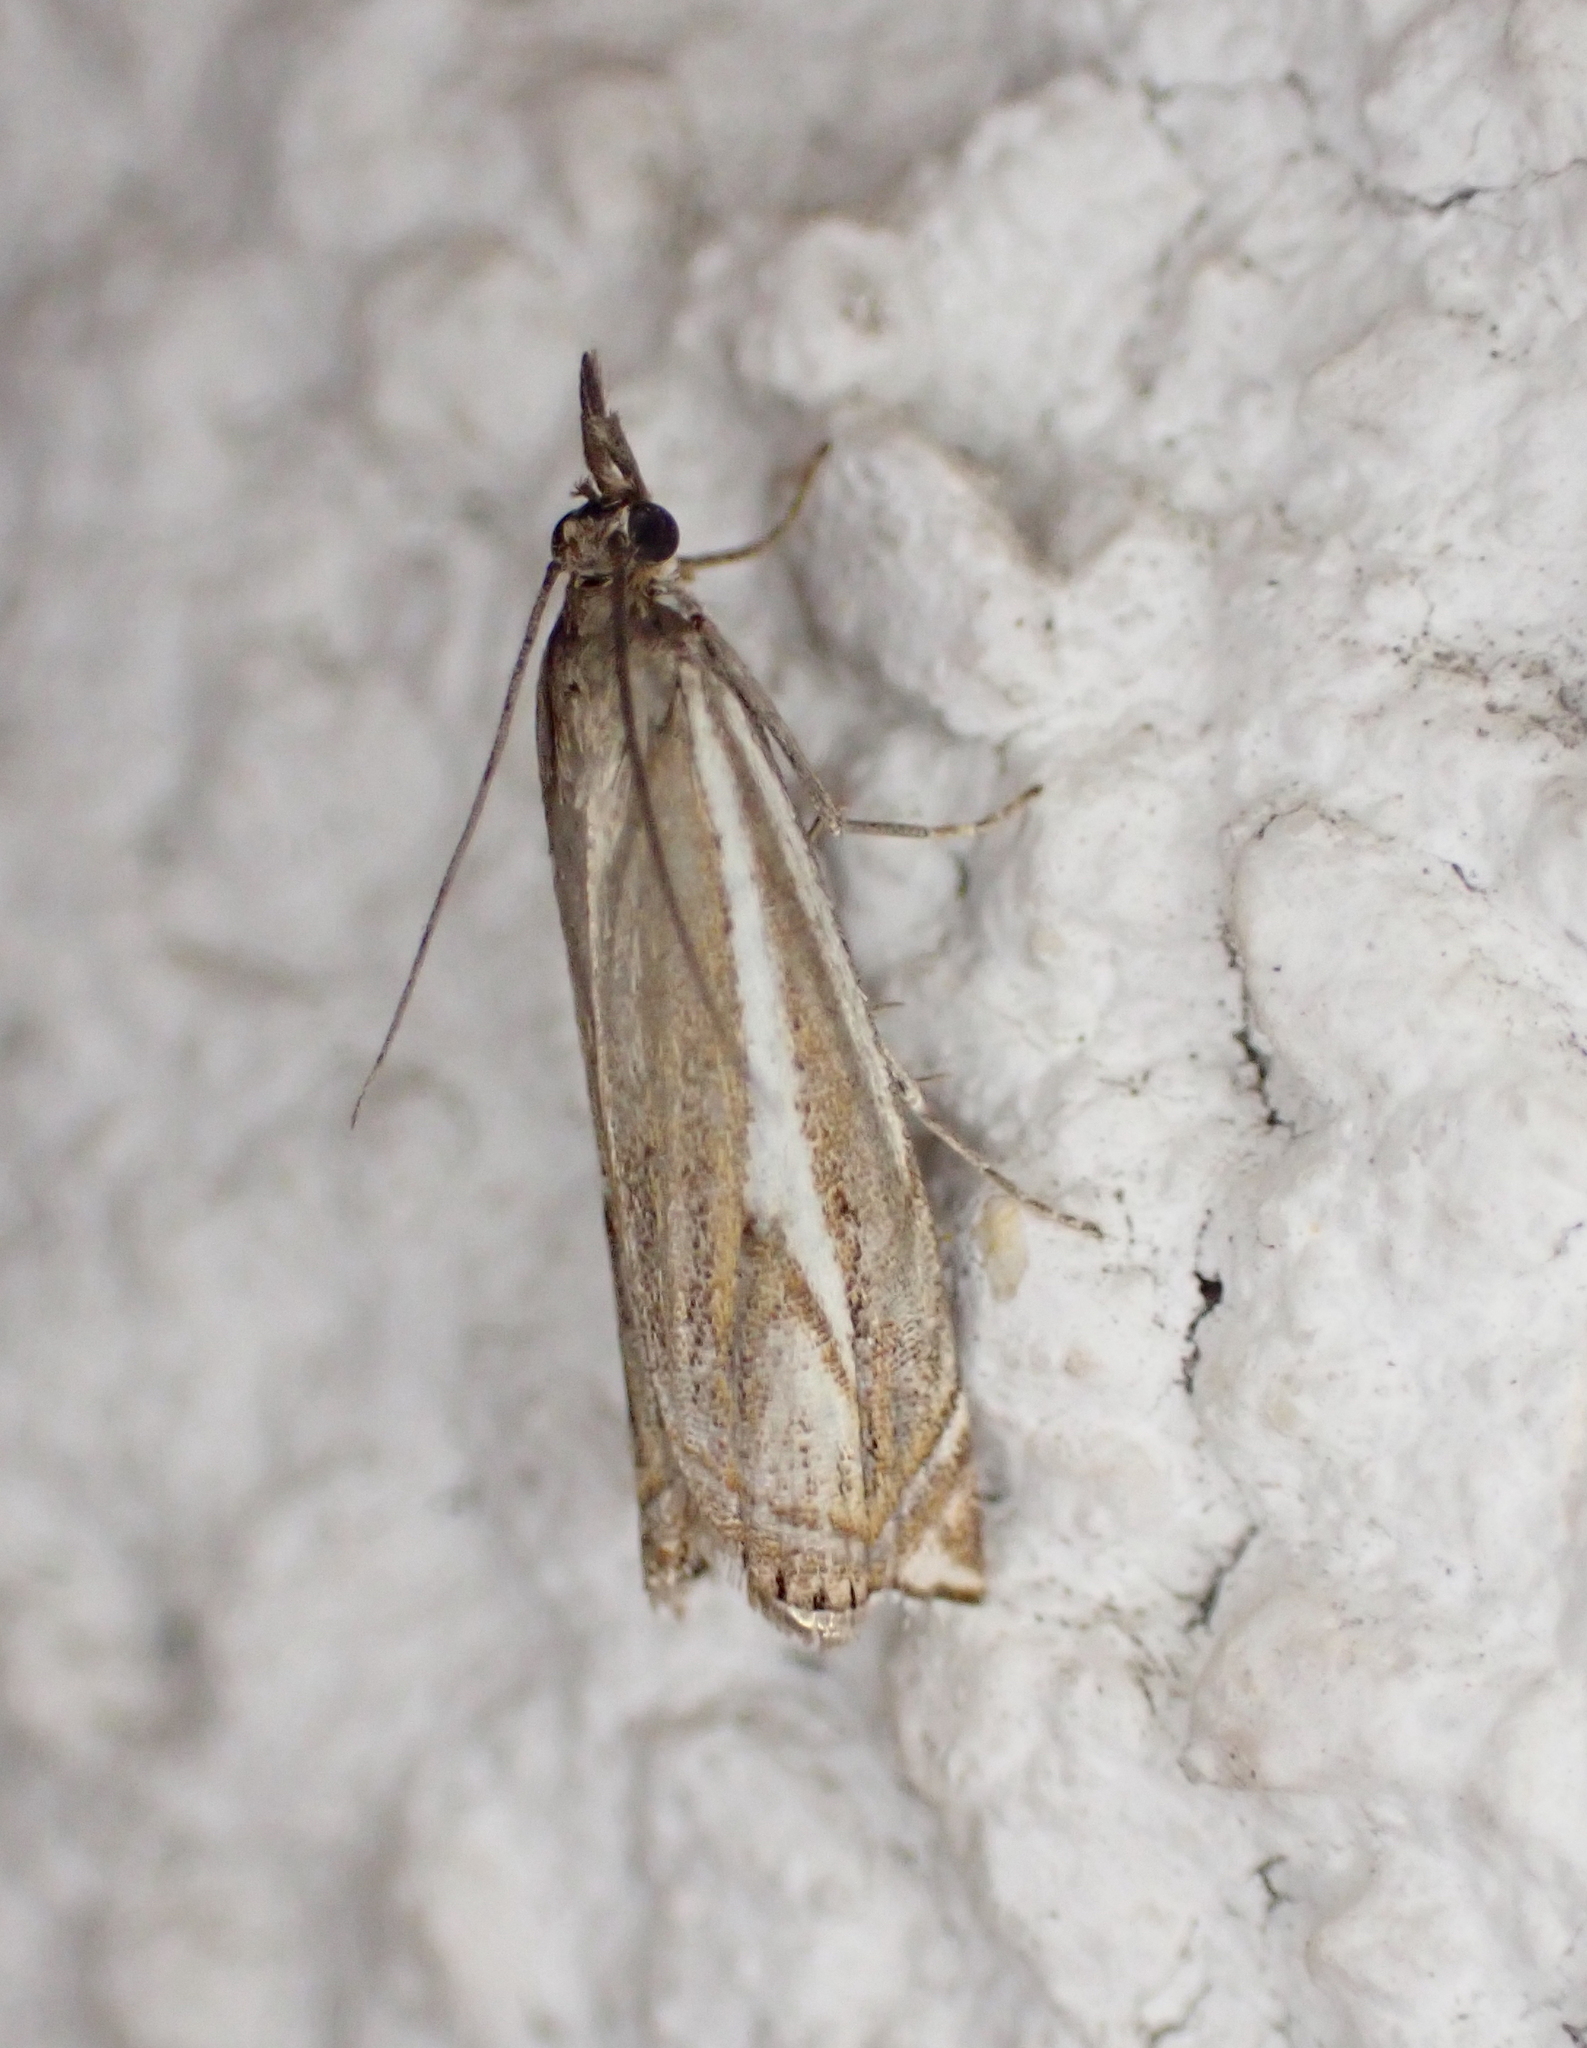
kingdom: Animalia
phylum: Arthropoda
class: Insecta
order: Lepidoptera
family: Crambidae
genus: Crambus
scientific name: Crambus nemorella
